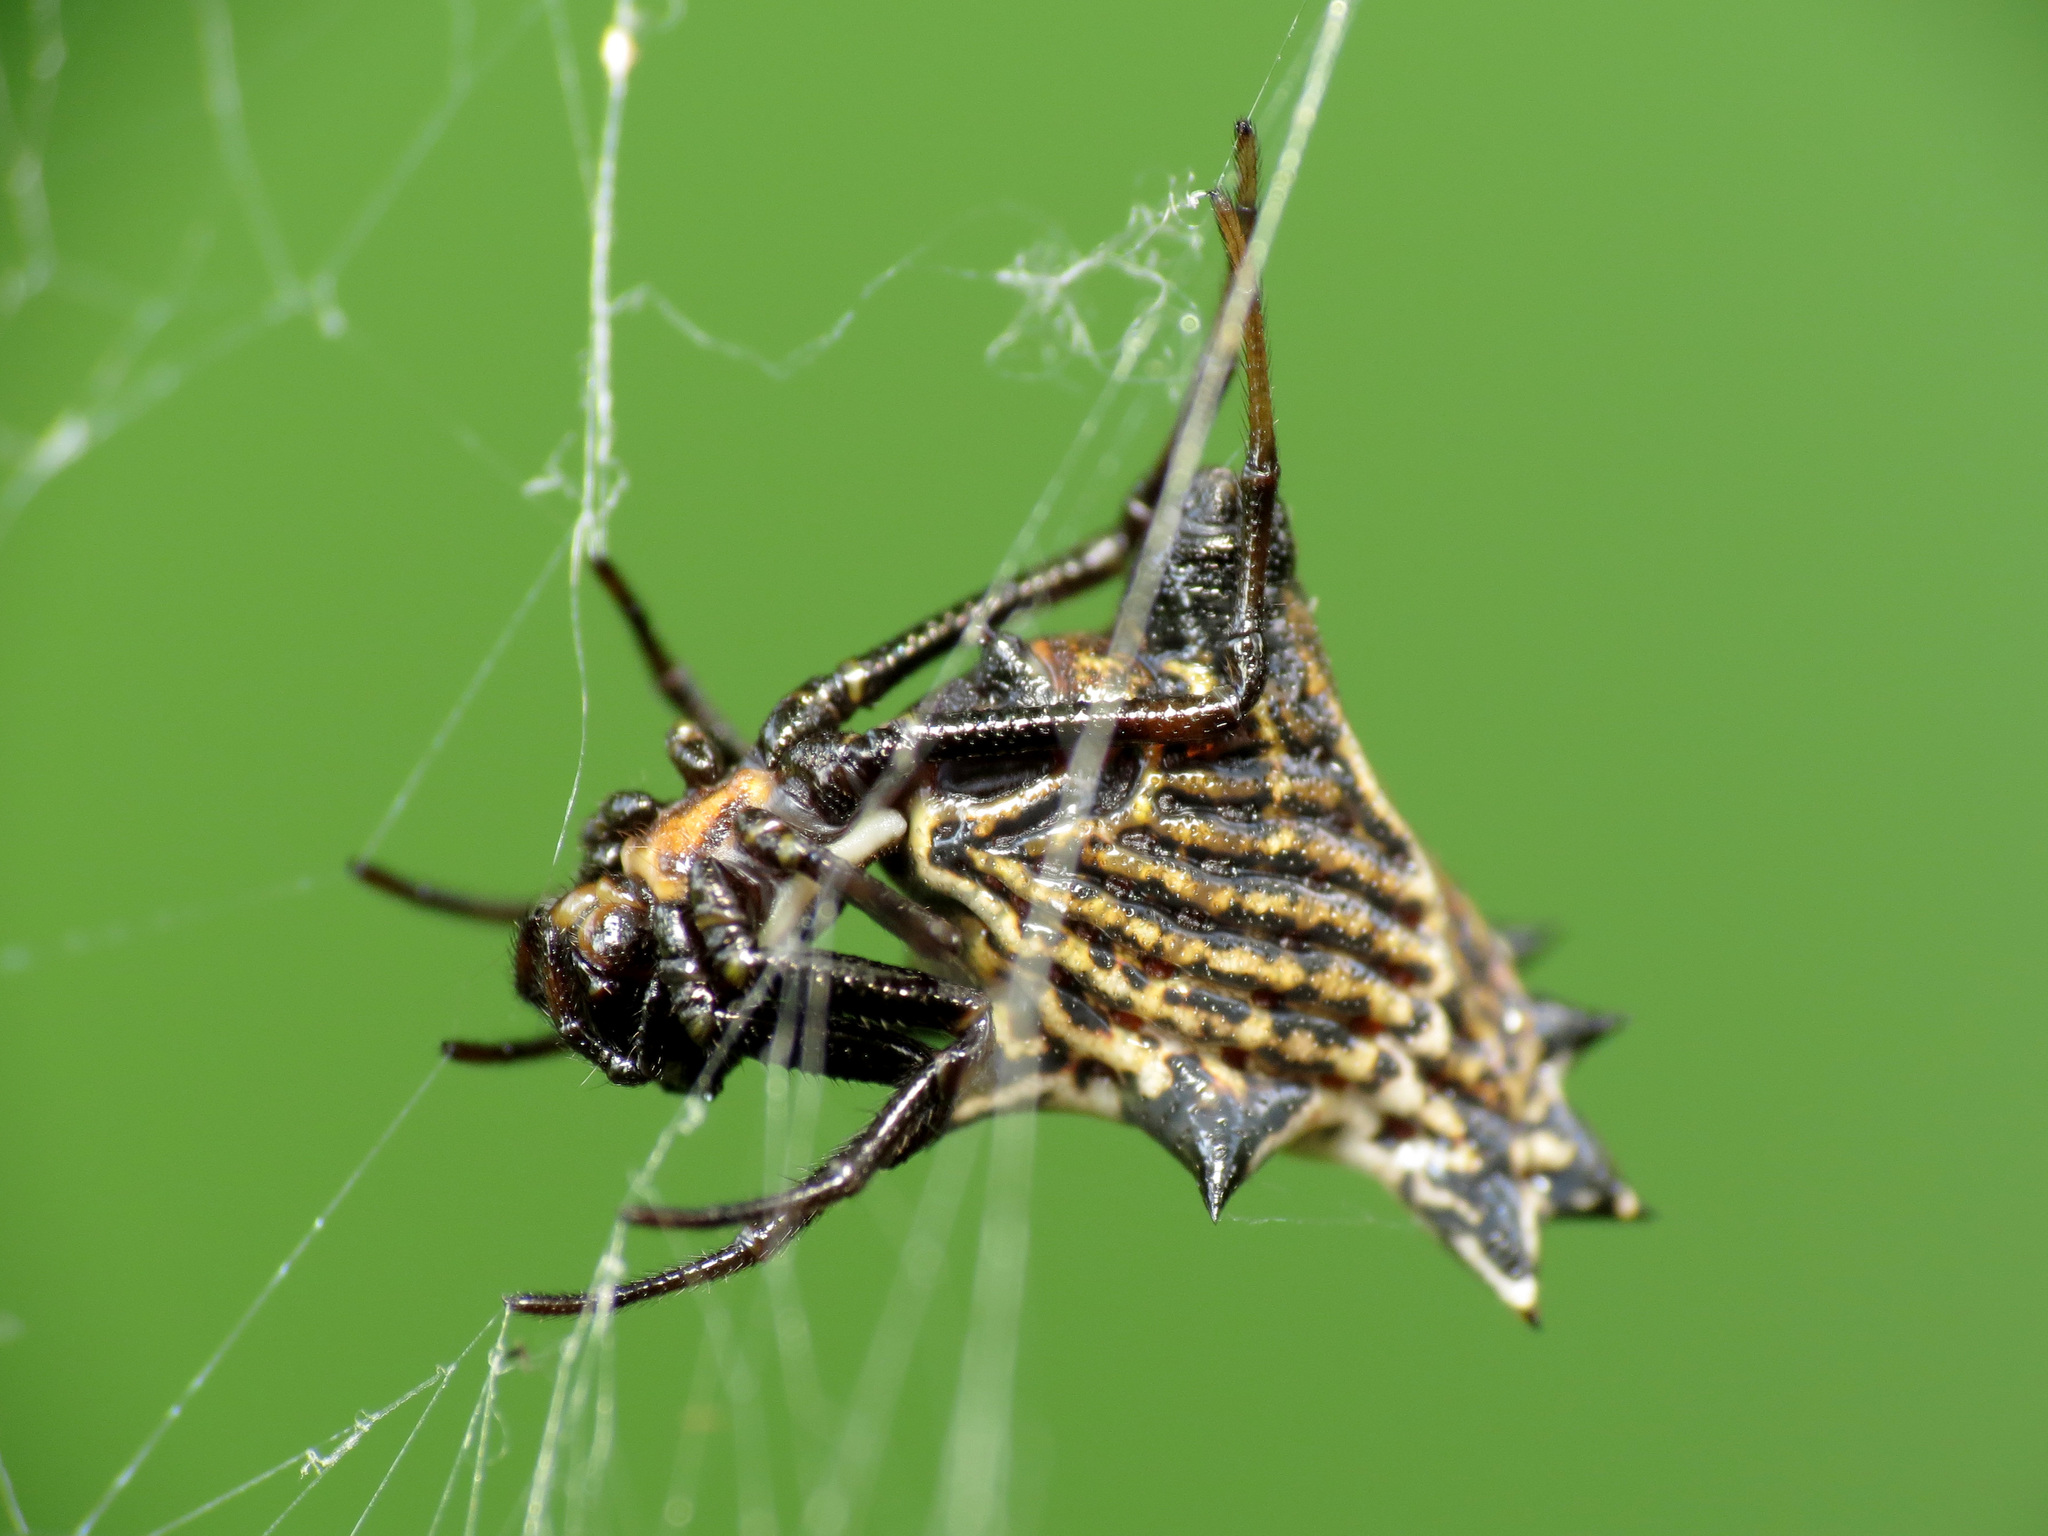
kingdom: Animalia
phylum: Arthropoda
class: Arachnida
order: Araneae
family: Araneidae
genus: Micrathena
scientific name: Micrathena gracilis
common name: Orb weavers
